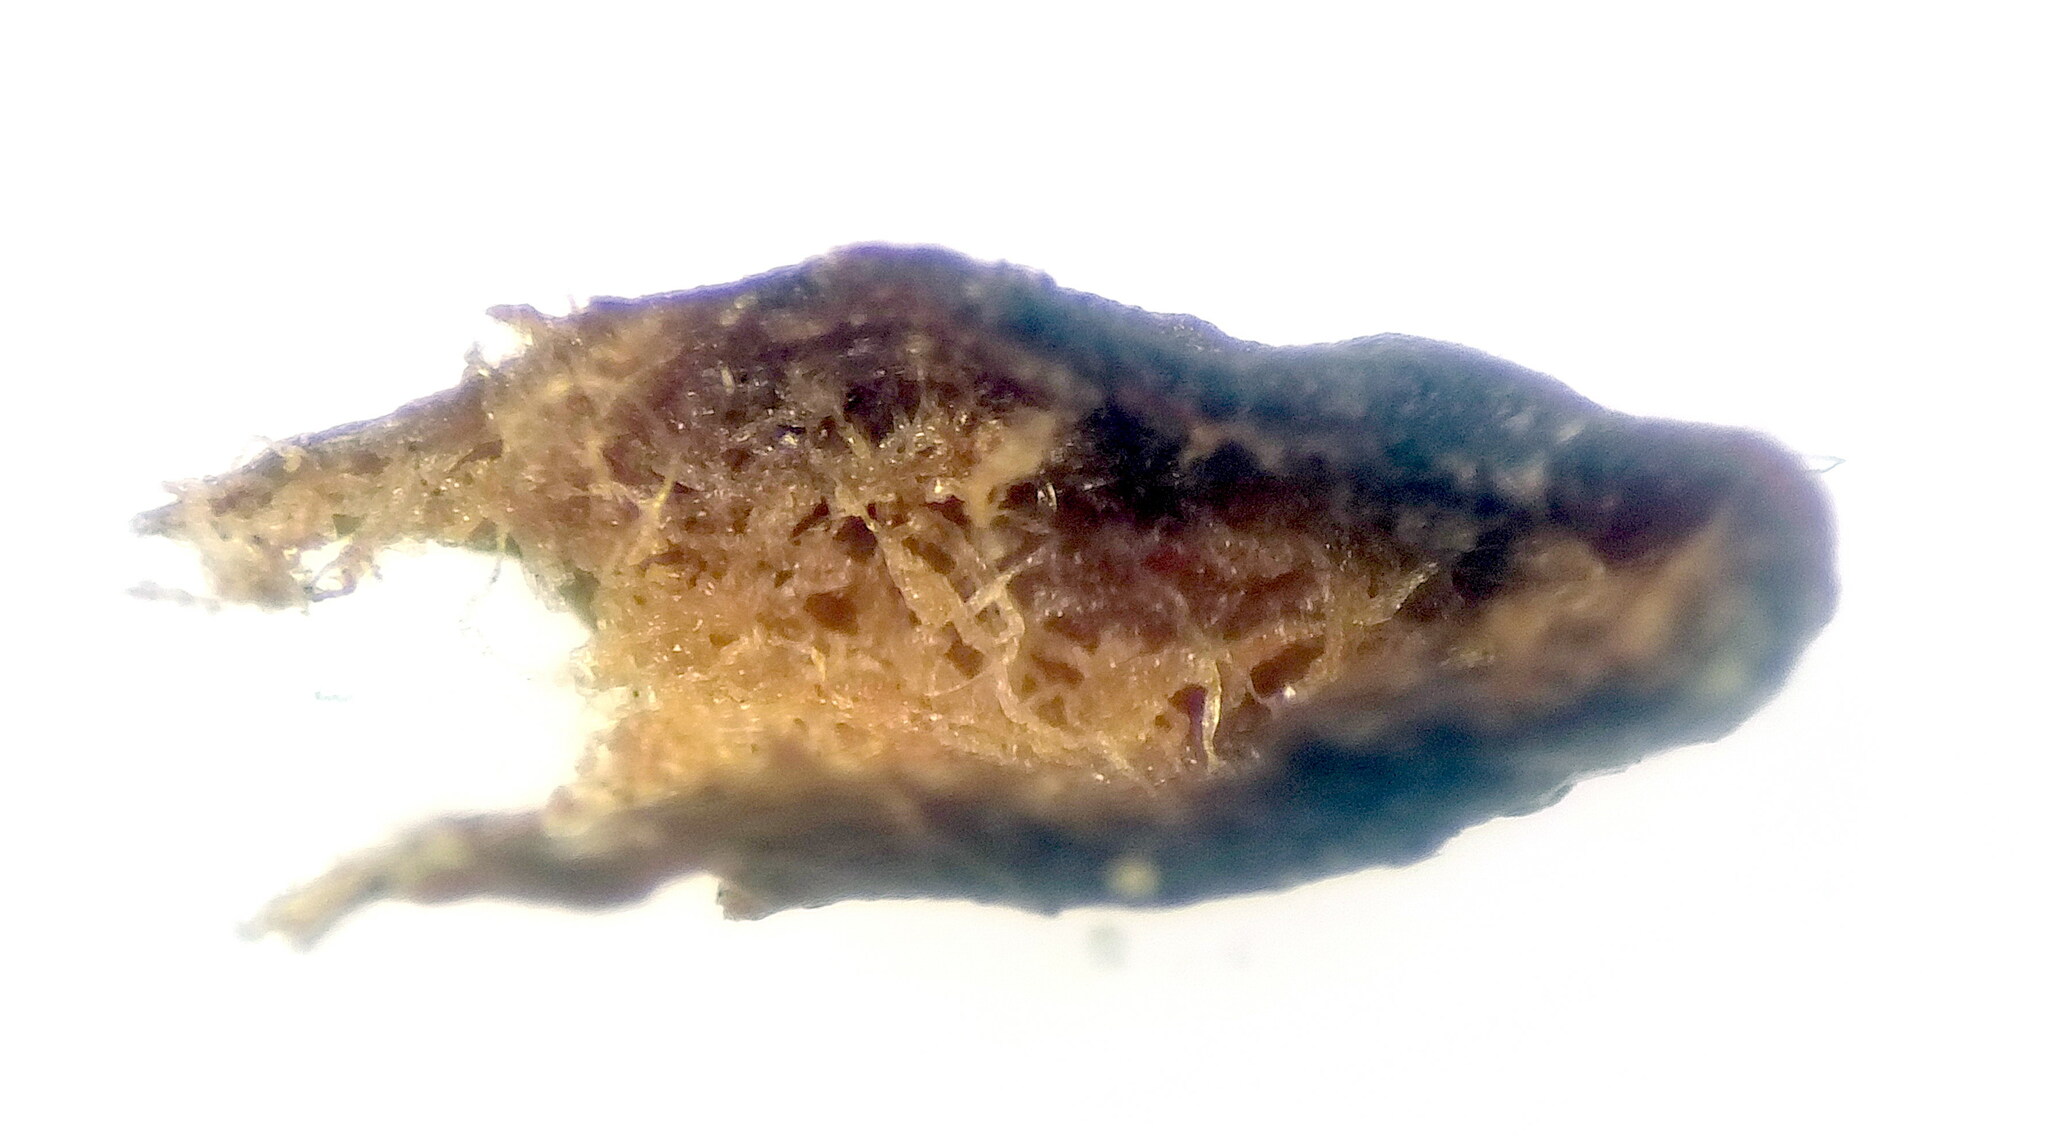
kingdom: Animalia
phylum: Arthropoda
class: Arachnida
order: Trombidiformes
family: Eriophyidae
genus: Aceria
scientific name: Aceria opulifolii
